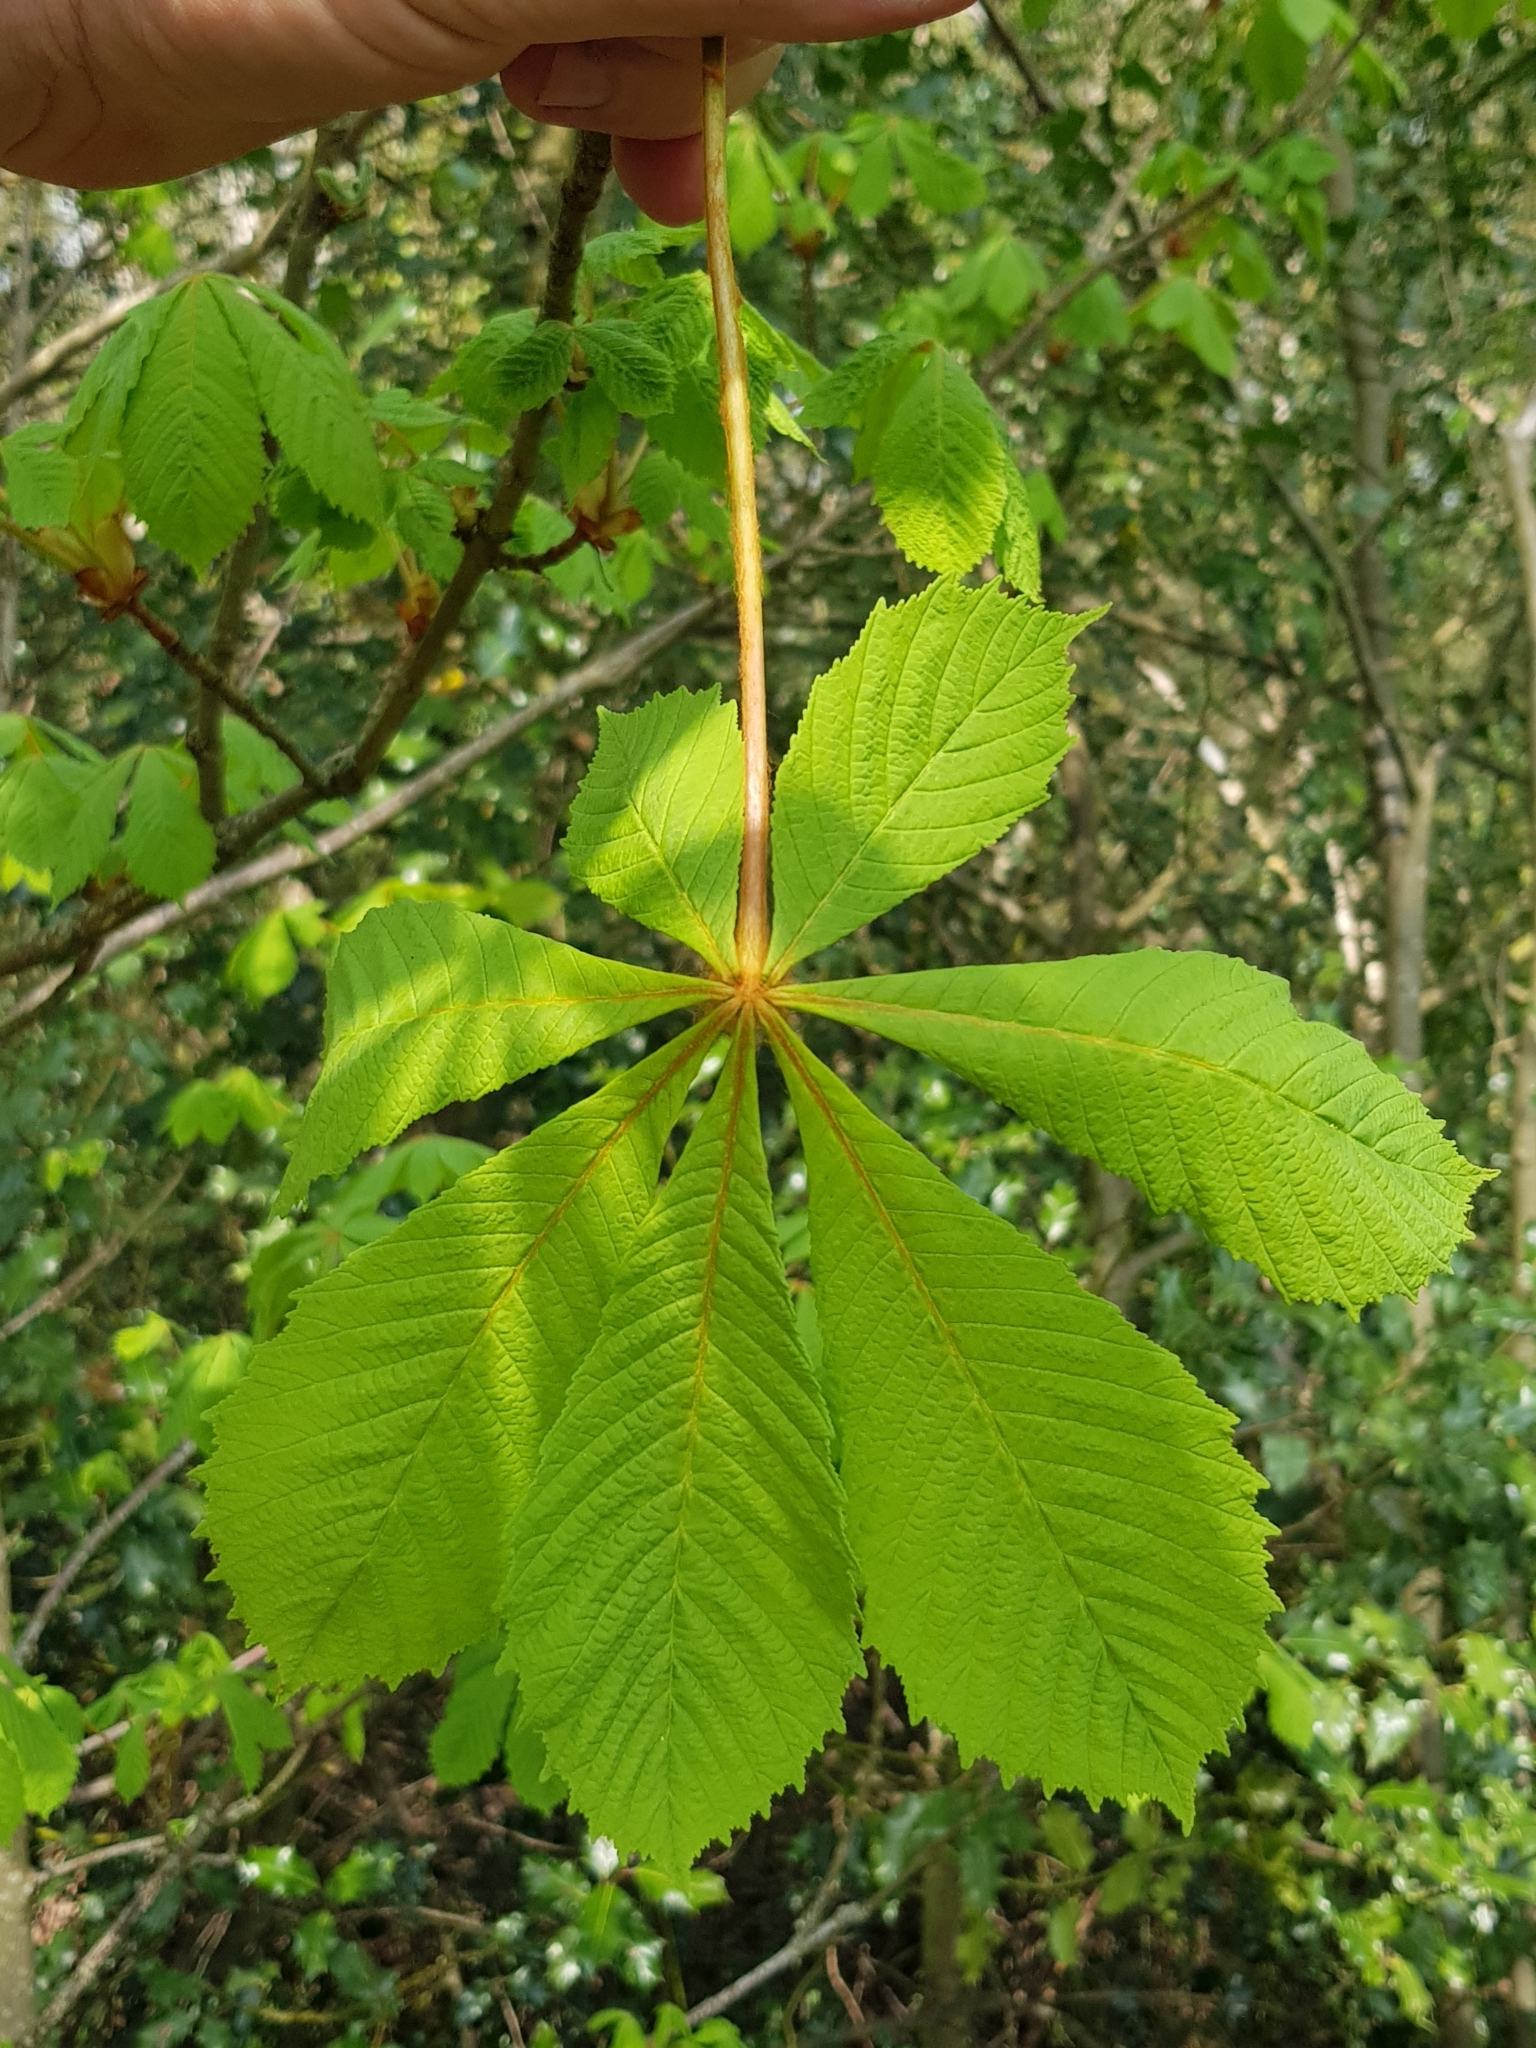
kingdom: Plantae
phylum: Tracheophyta
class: Magnoliopsida
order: Sapindales
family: Sapindaceae
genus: Aesculus
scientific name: Aesculus hippocastanum
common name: Horse-chestnut
